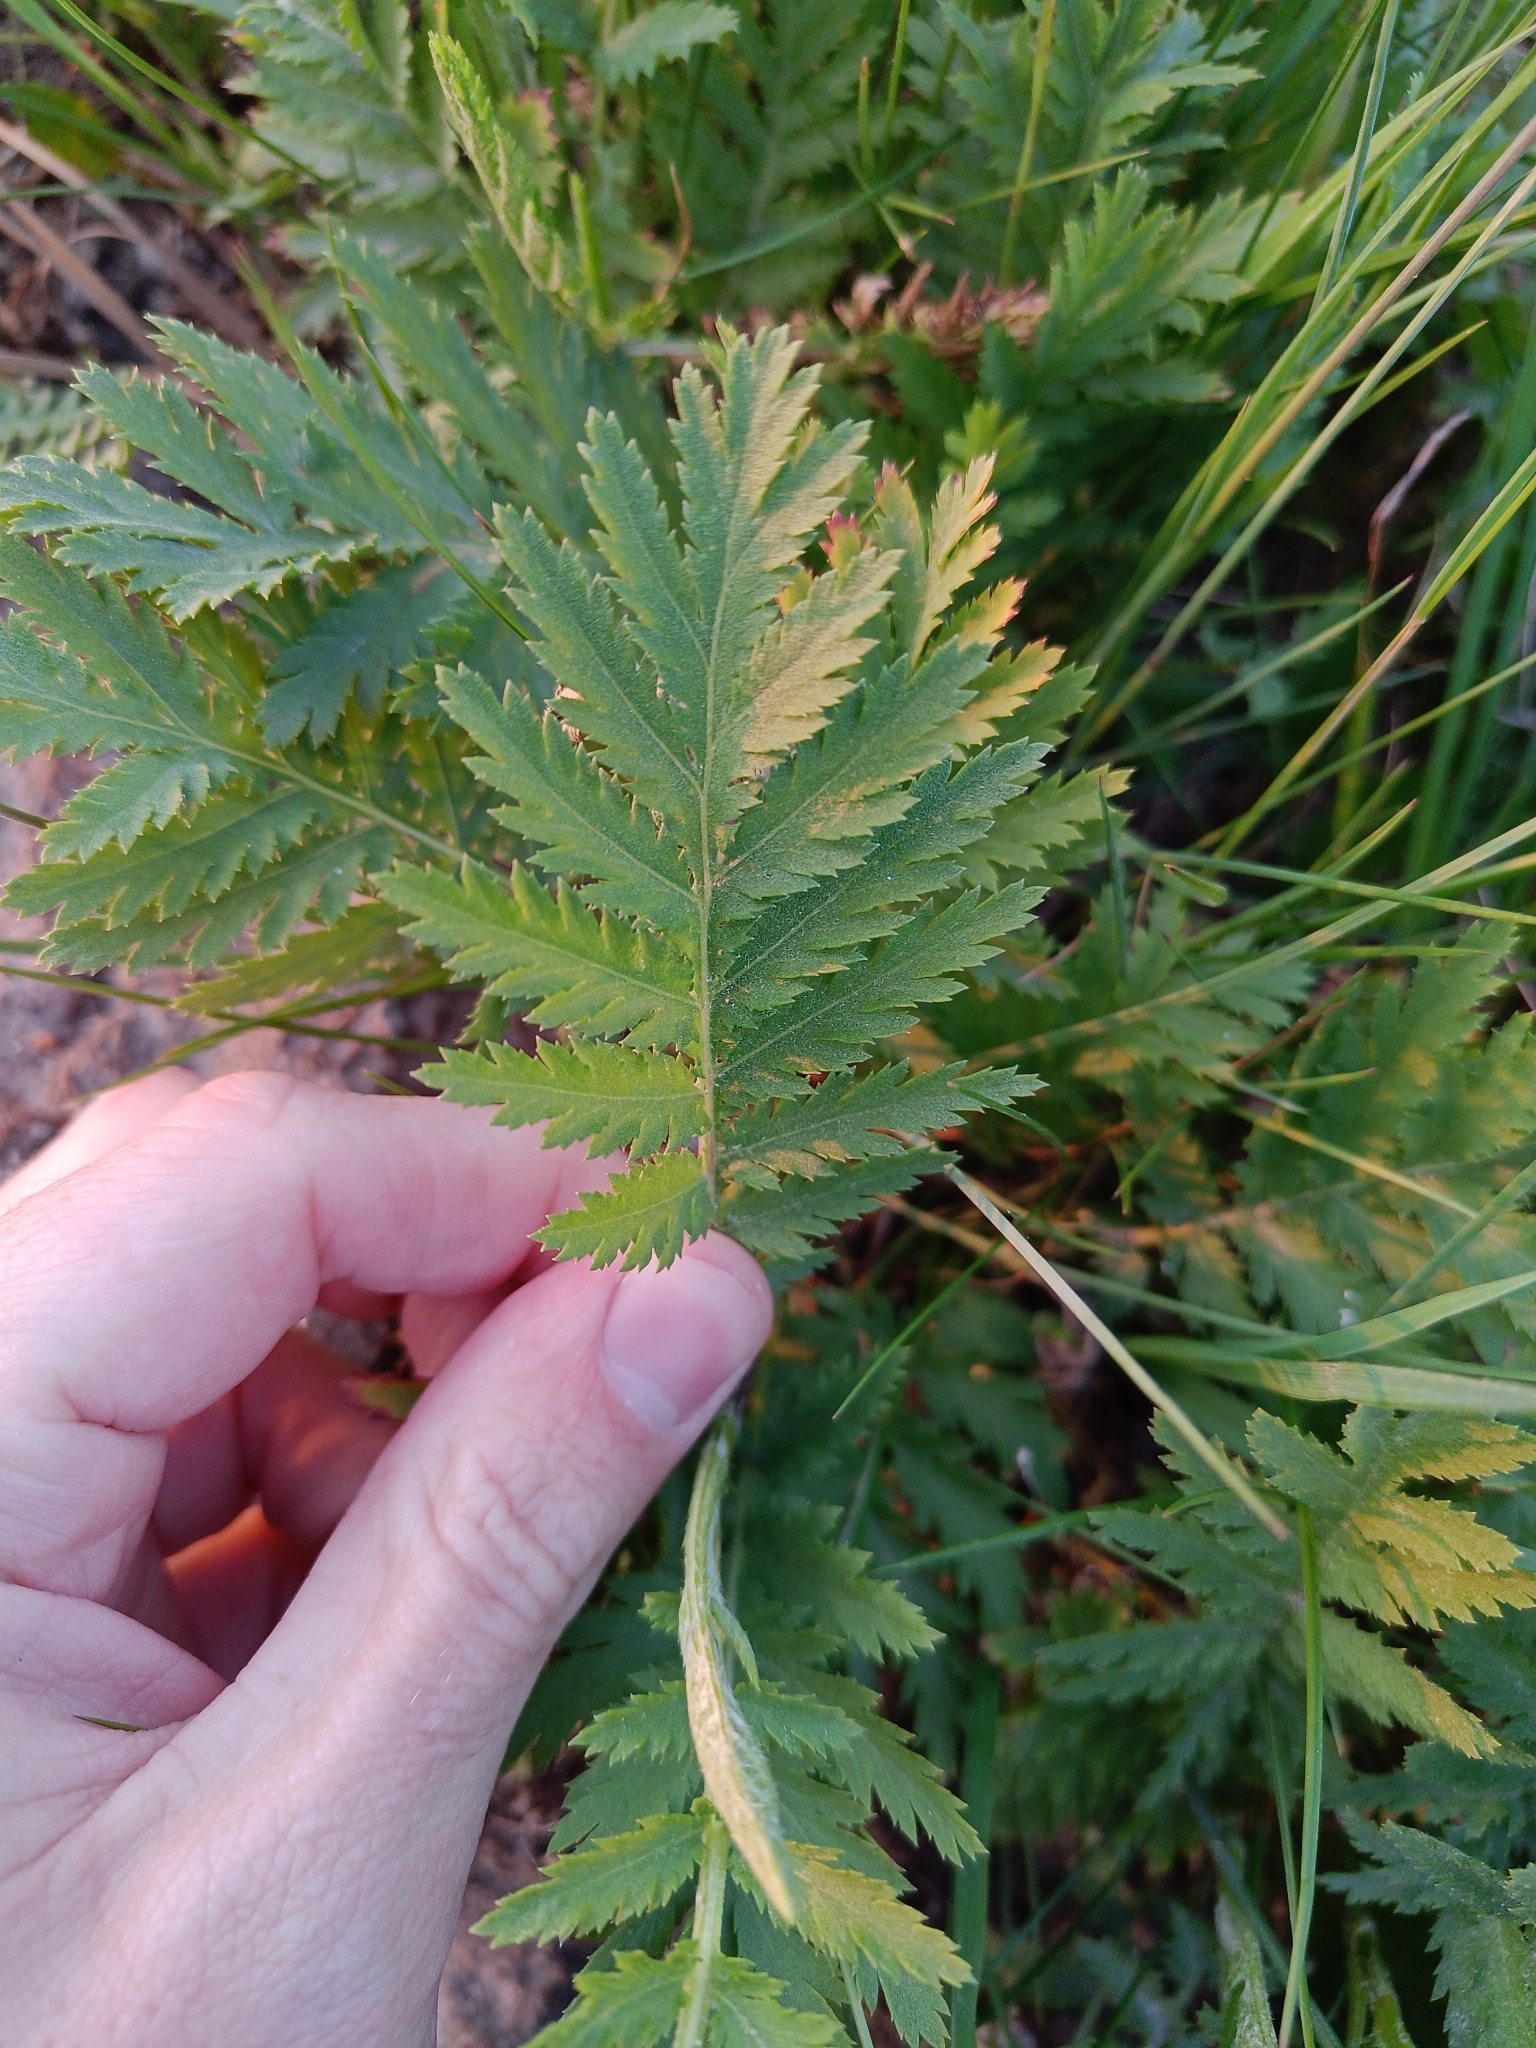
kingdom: Plantae
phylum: Tracheophyta
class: Magnoliopsida
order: Asterales
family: Asteraceae
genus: Tanacetum
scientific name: Tanacetum vulgare
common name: Common tansy
